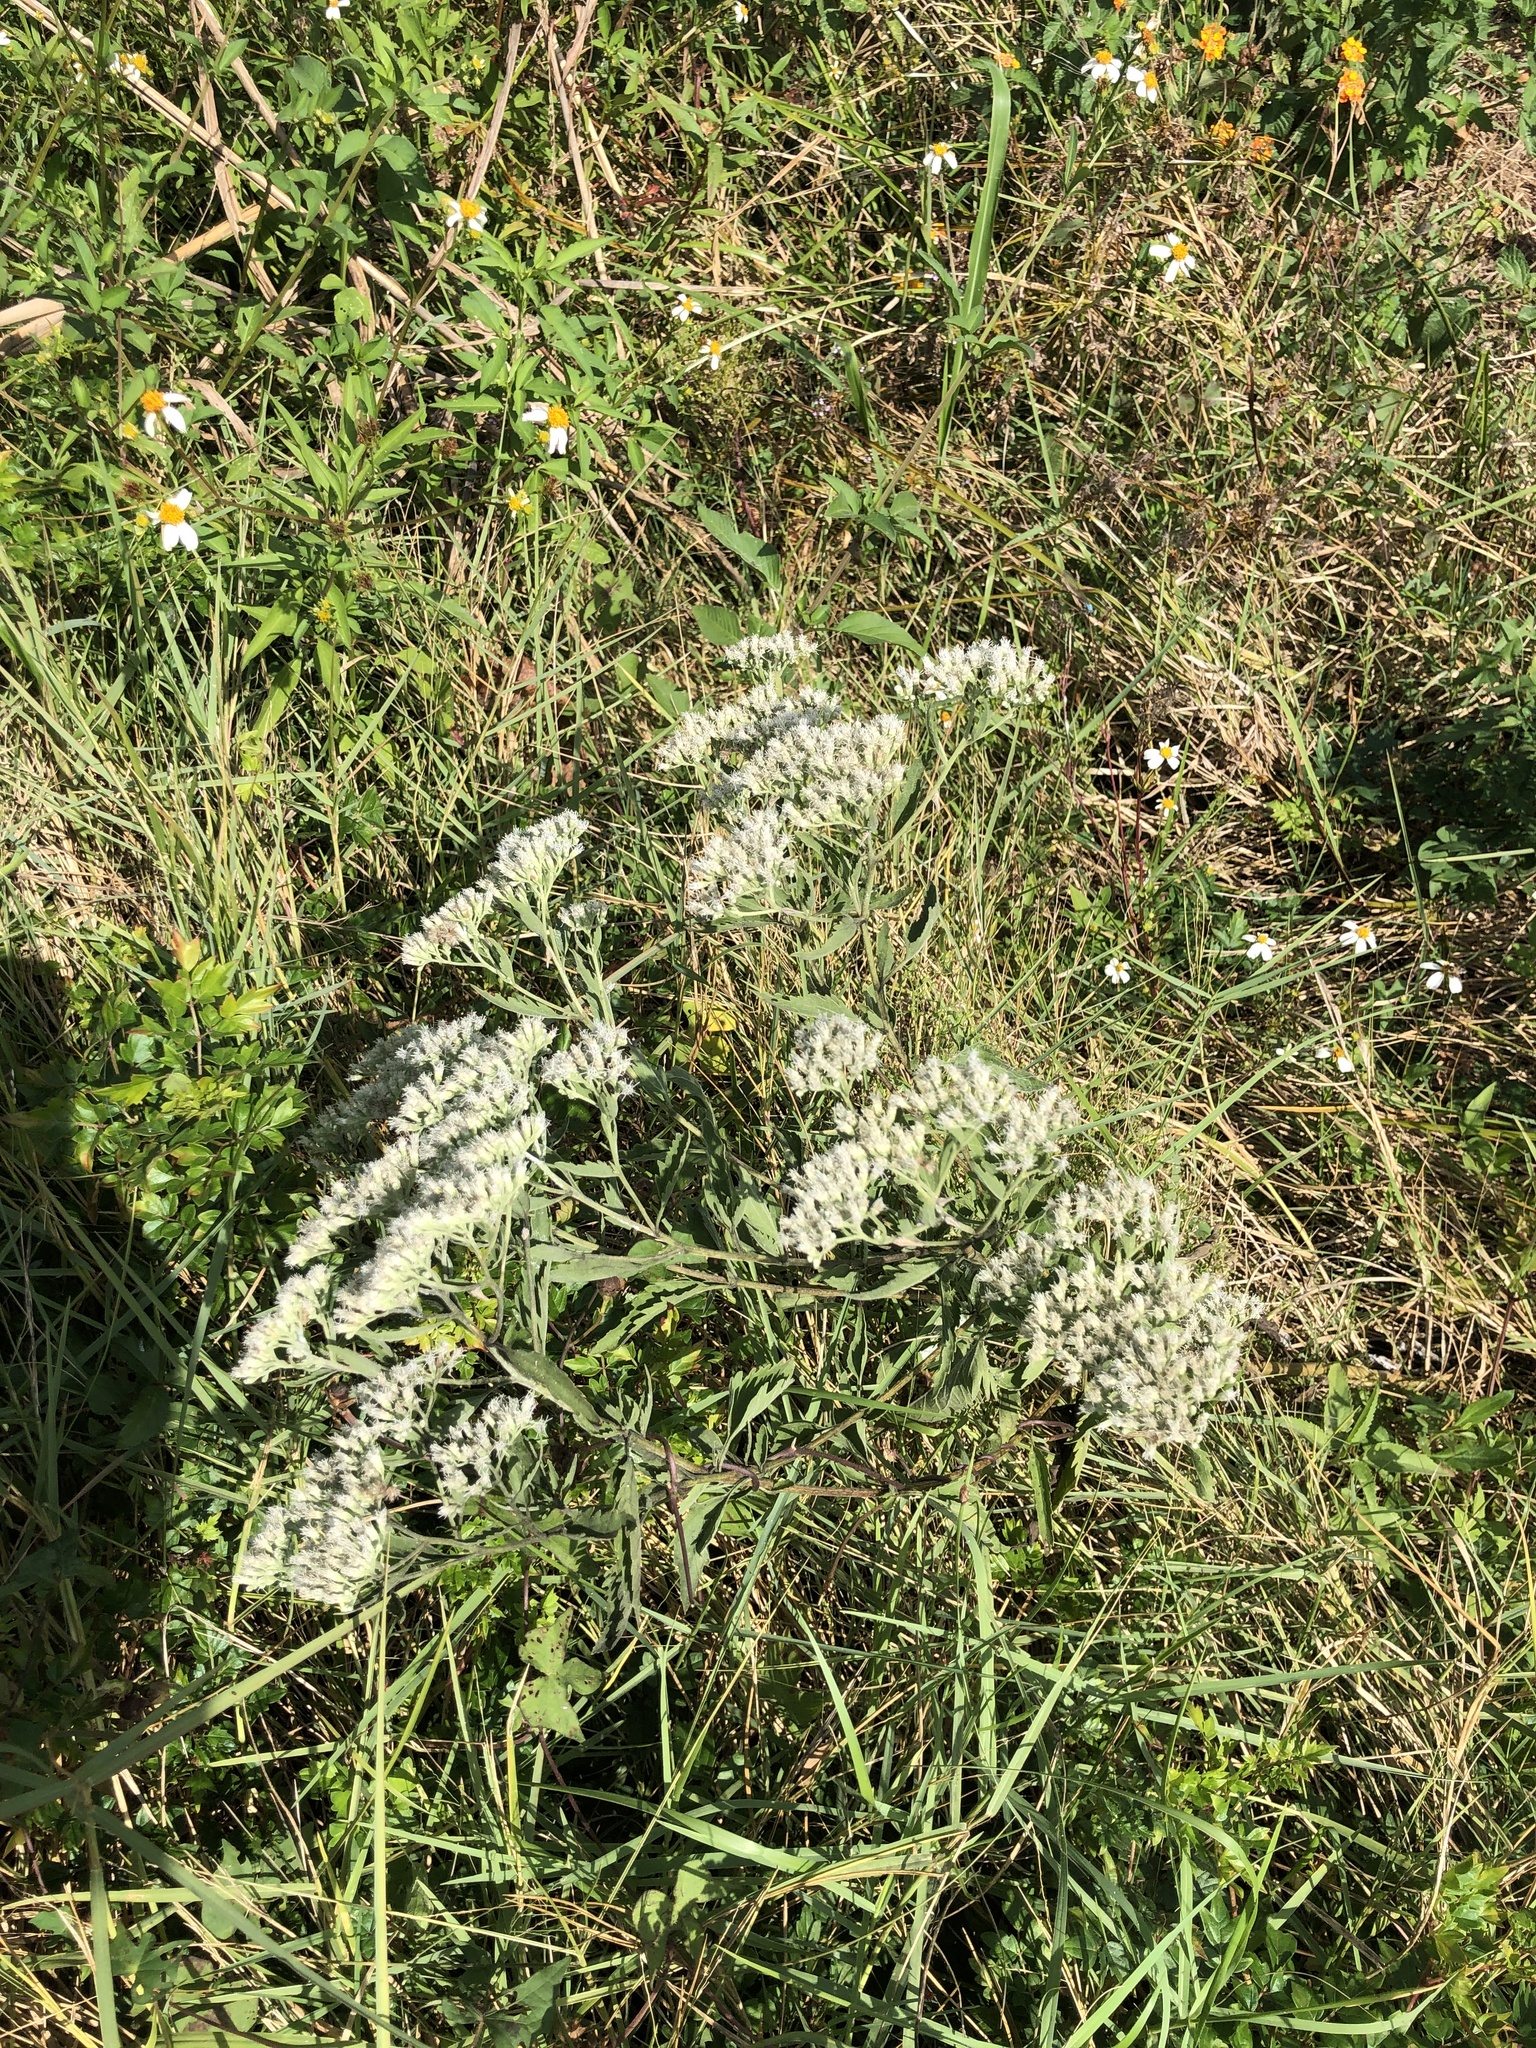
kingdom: Plantae
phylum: Tracheophyta
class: Magnoliopsida
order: Asterales
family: Asteraceae
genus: Eupatorium
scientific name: Eupatorium serotinum
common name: Late boneset
